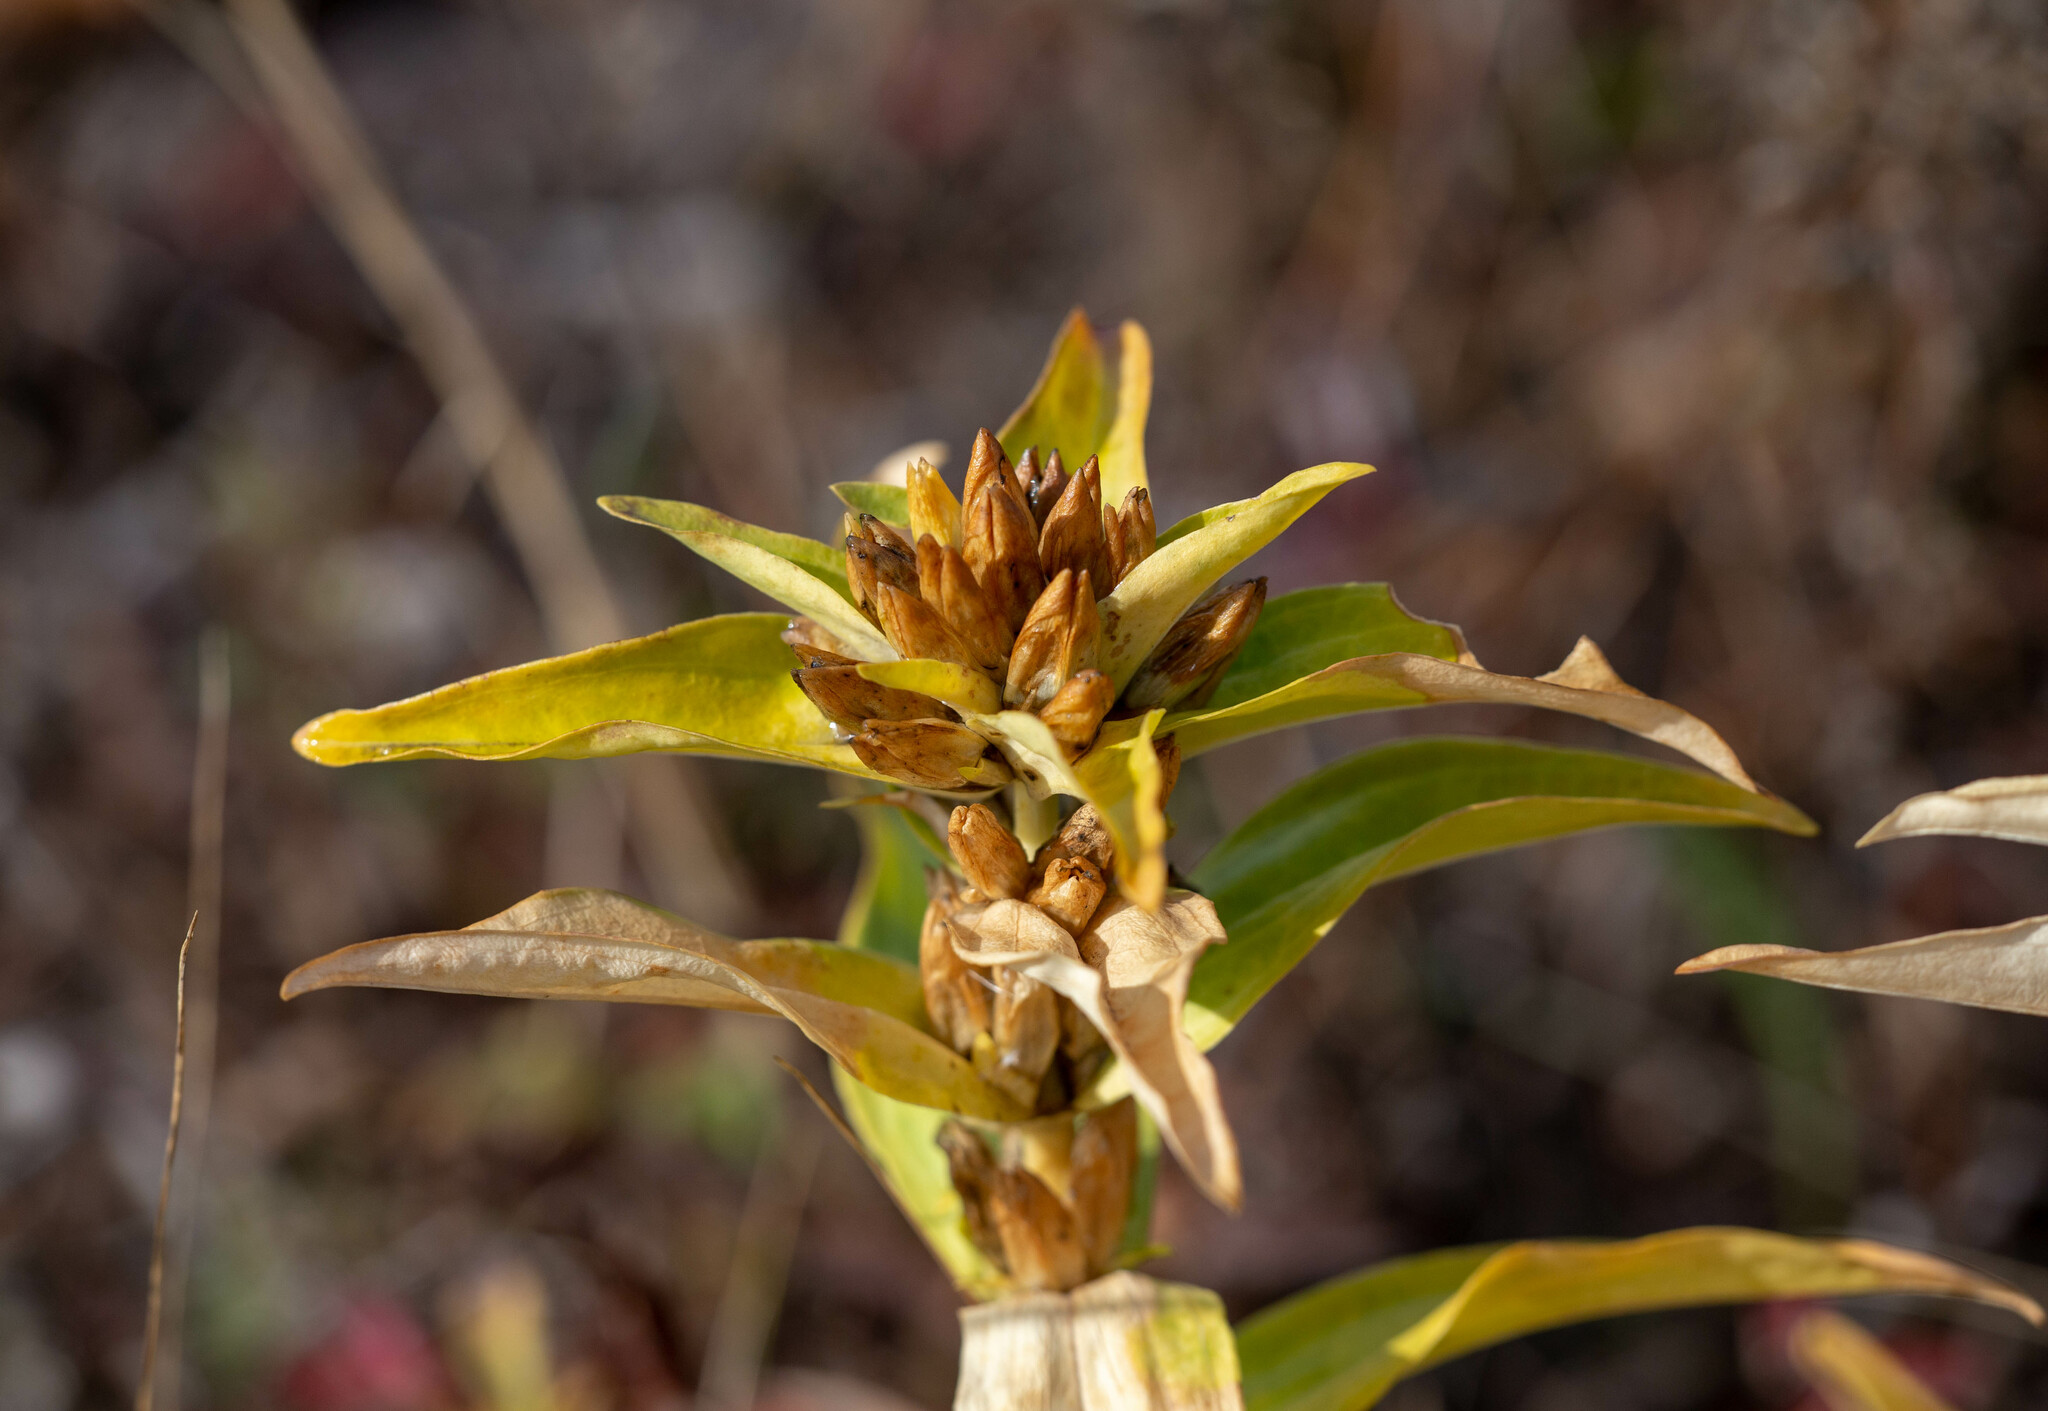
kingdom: Plantae
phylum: Tracheophyta
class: Magnoliopsida
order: Gentianales
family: Gentianaceae
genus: Gentiana
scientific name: Gentiana cruciata
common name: Cross gentian
